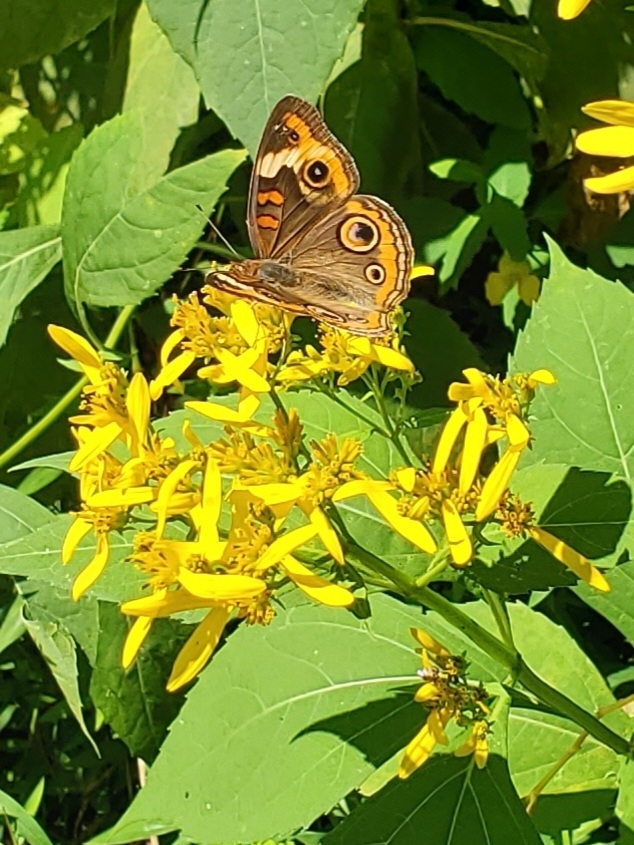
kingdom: Animalia
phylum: Arthropoda
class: Insecta
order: Lepidoptera
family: Nymphalidae
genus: Junonia
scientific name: Junonia coenia
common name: Common buckeye
